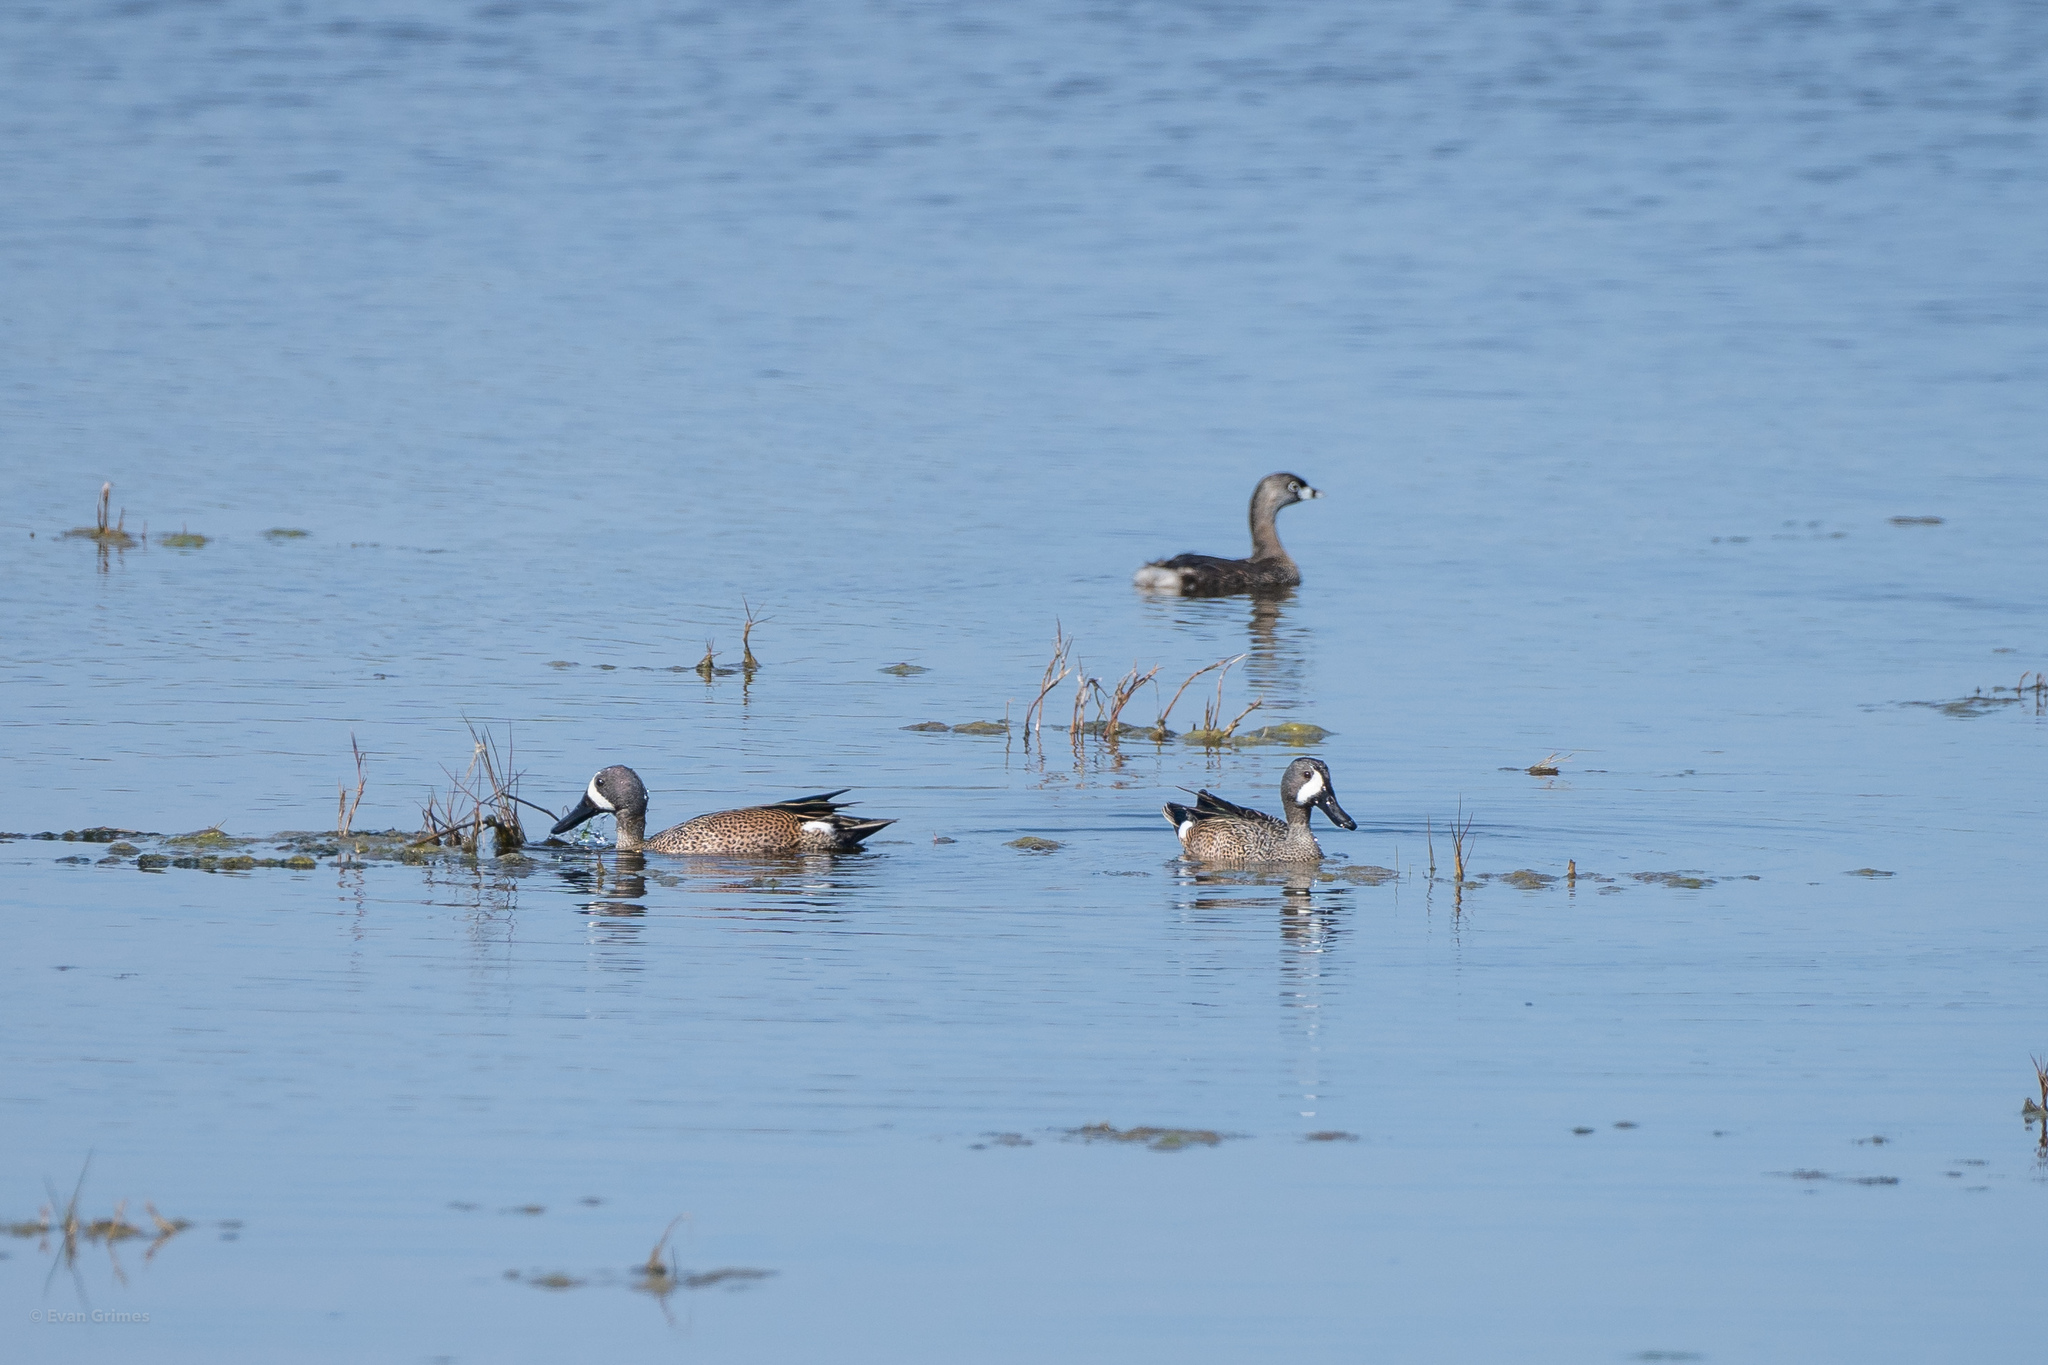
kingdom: Animalia
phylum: Chordata
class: Aves
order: Anseriformes
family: Anatidae
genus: Spatula
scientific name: Spatula discors
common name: Blue-winged teal
